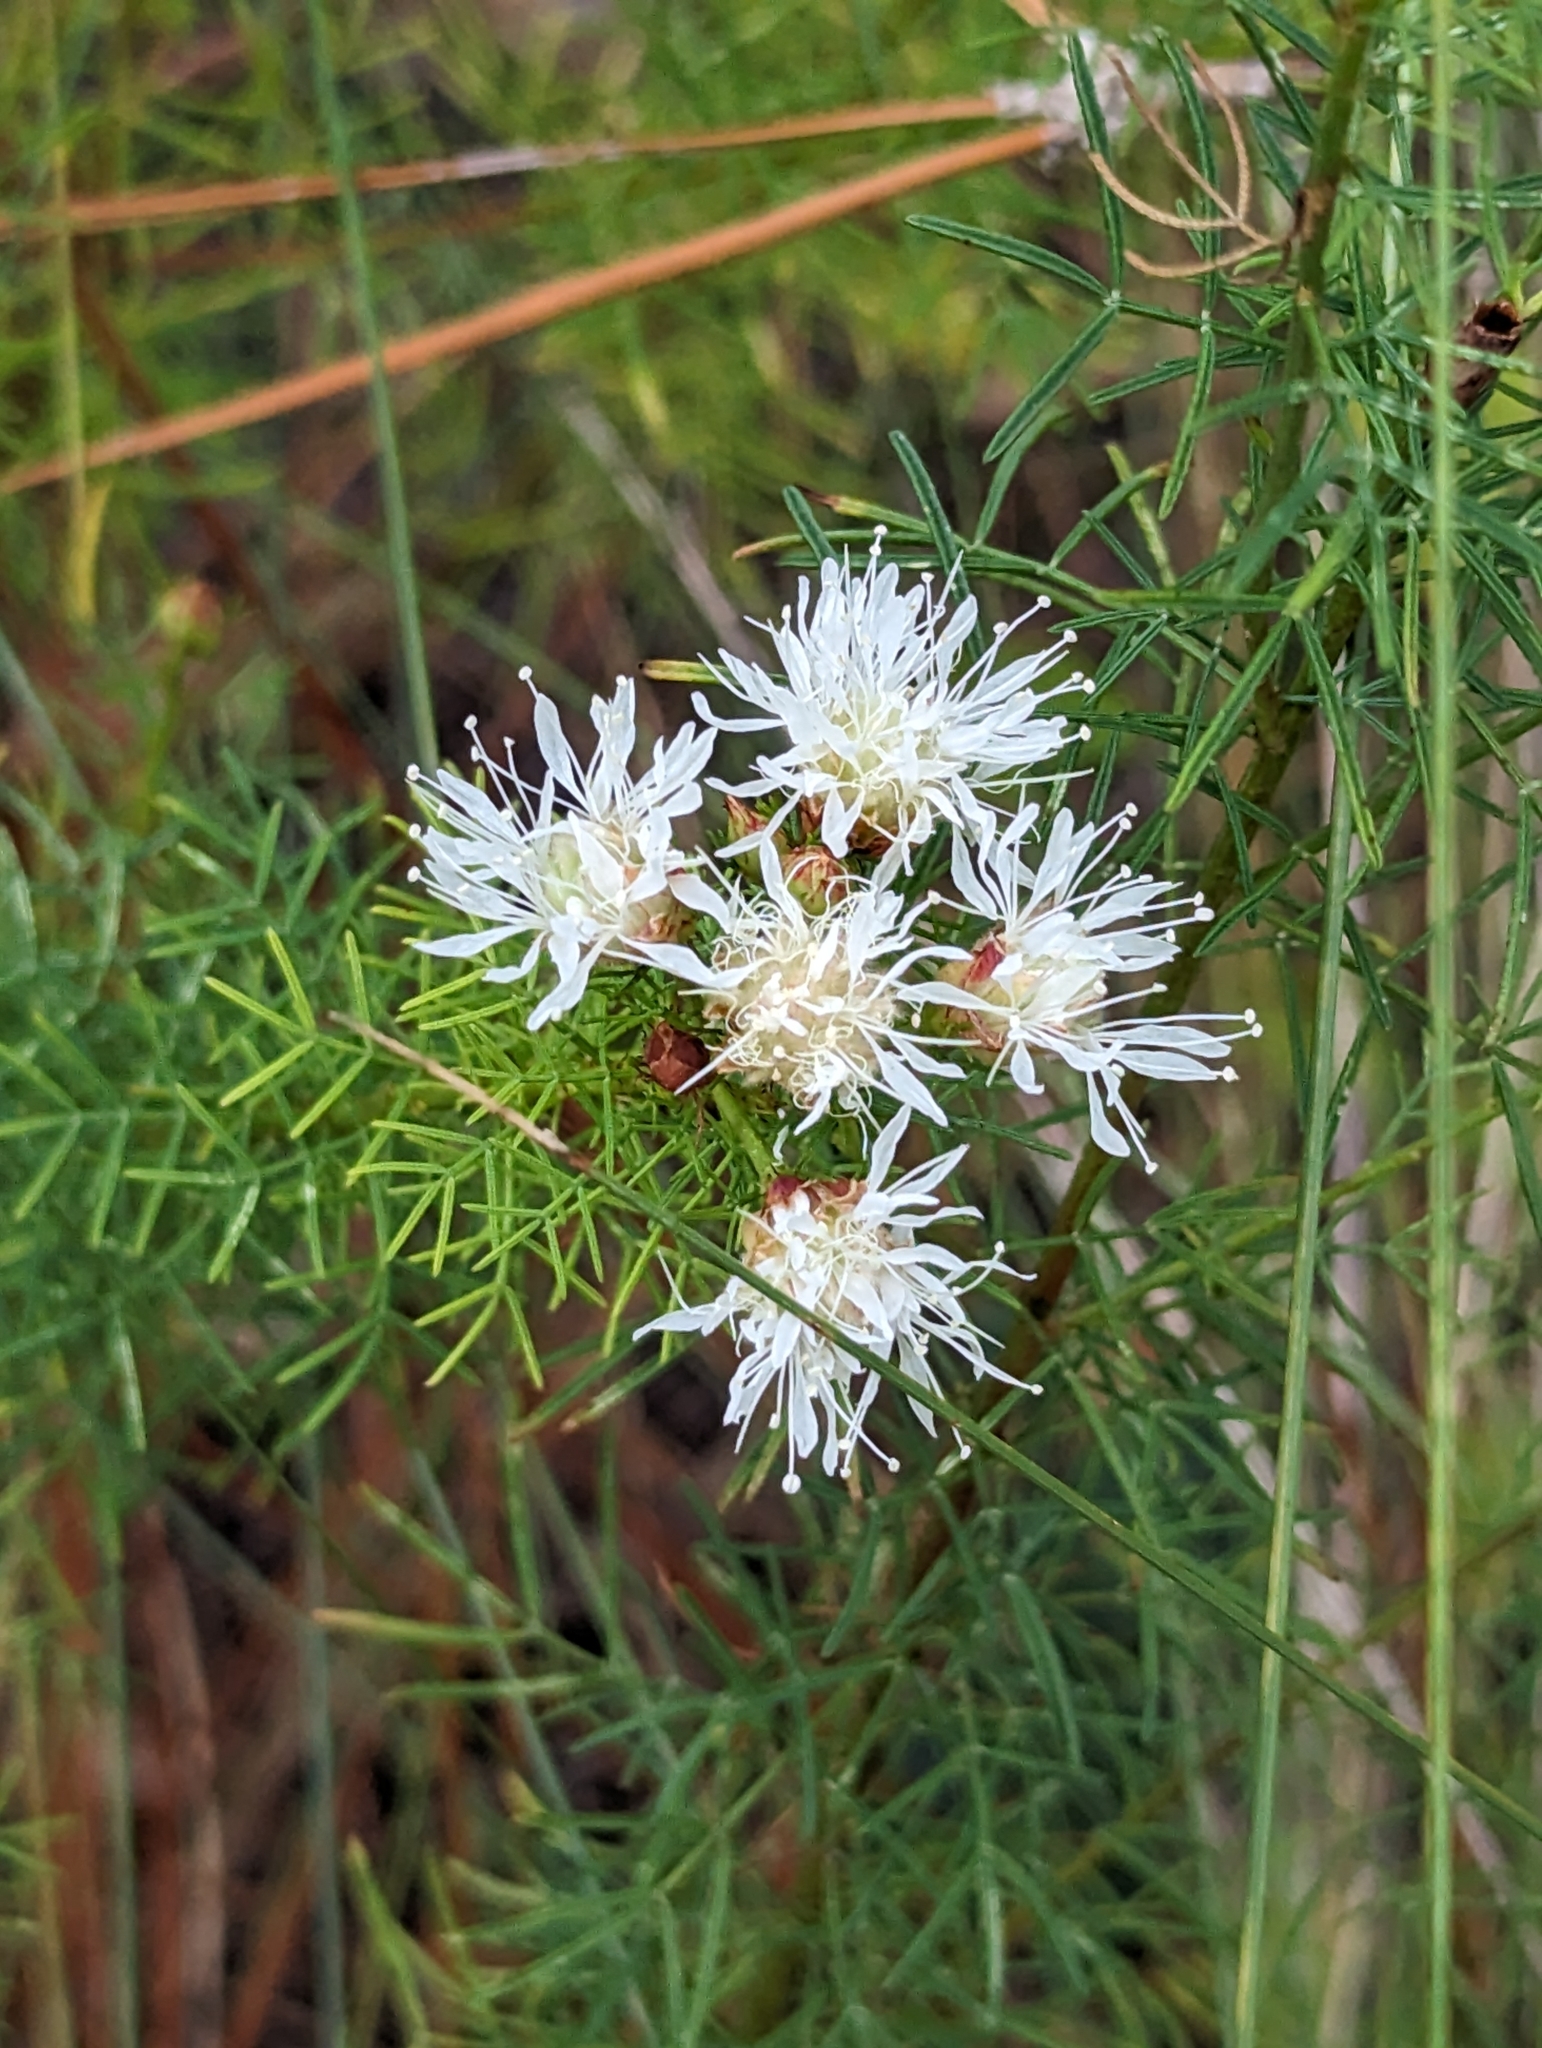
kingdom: Plantae
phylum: Tracheophyta
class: Magnoliopsida
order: Fabales
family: Fabaceae
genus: Dalea
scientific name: Dalea pinnata
